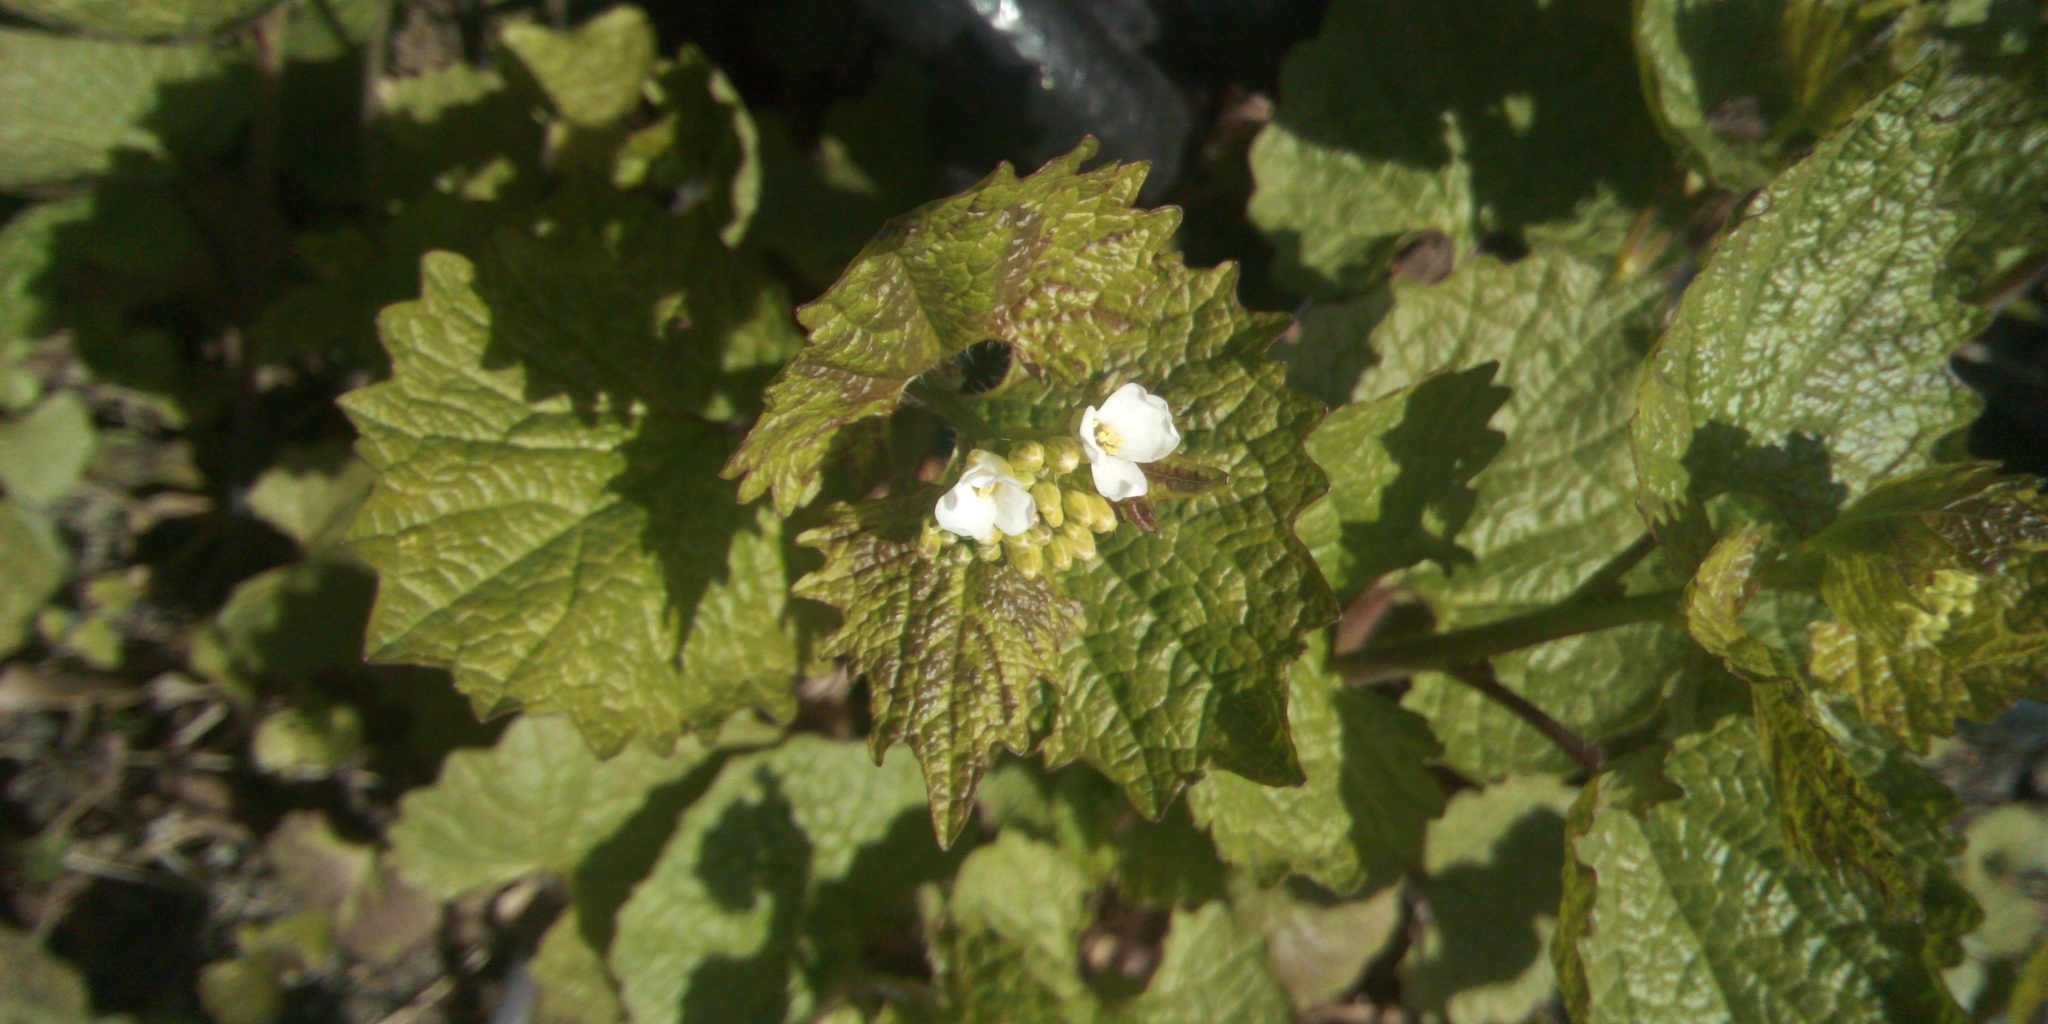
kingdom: Plantae
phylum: Tracheophyta
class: Magnoliopsida
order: Brassicales
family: Brassicaceae
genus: Alliaria
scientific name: Alliaria petiolata
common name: Garlic mustard
